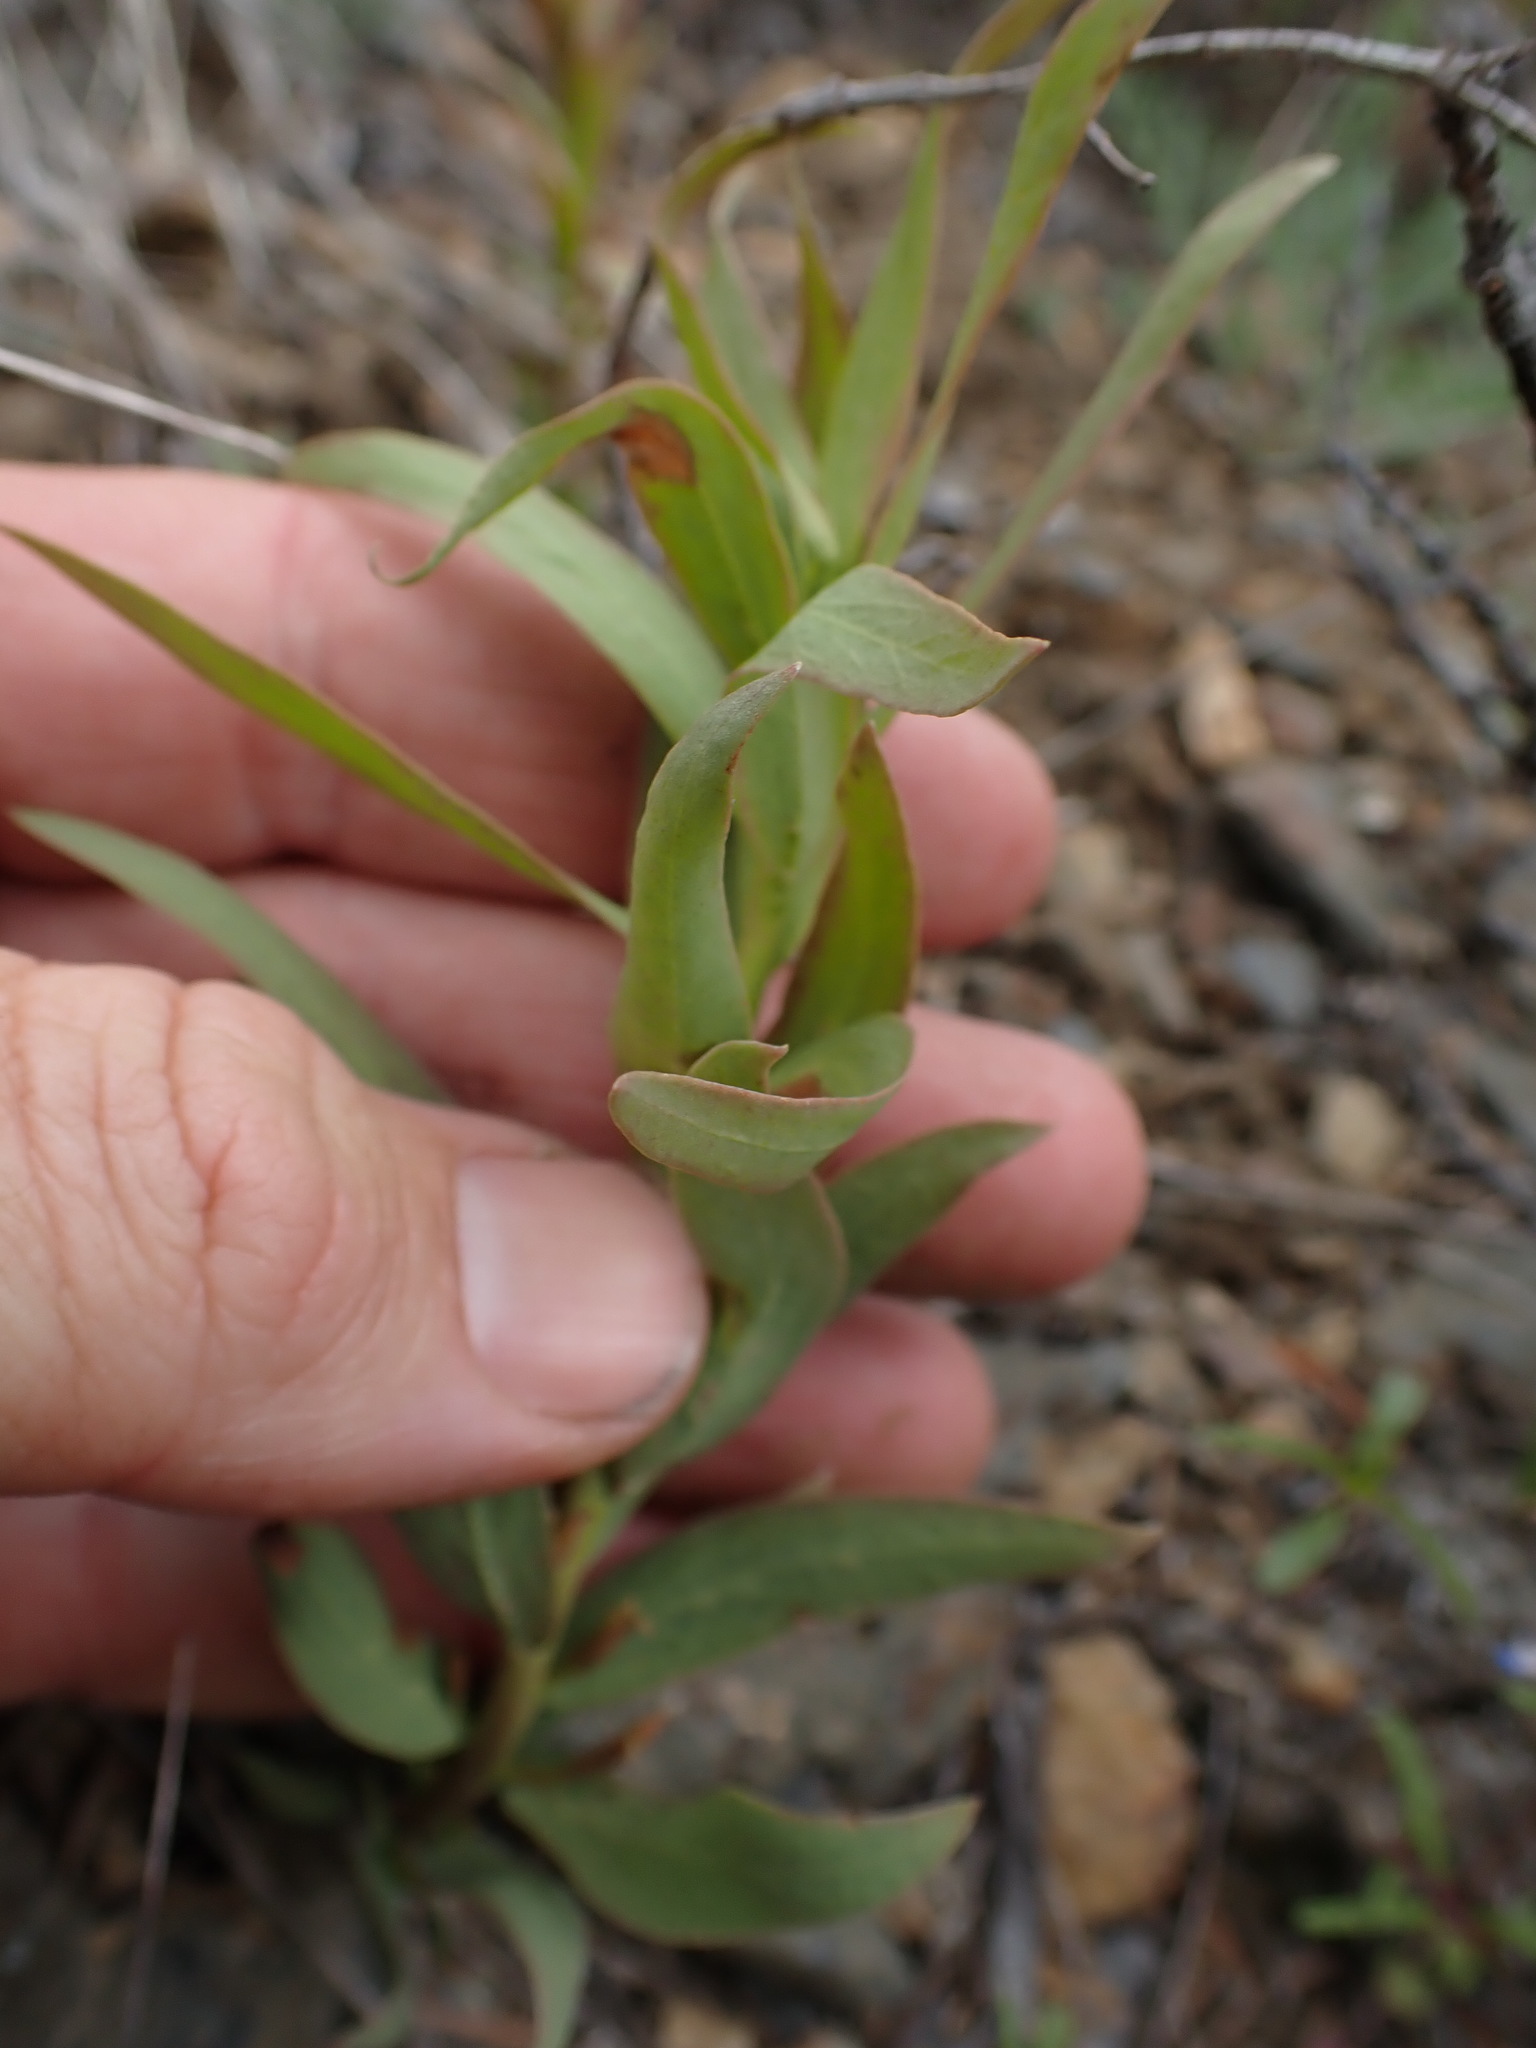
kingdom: Plantae
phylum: Tracheophyta
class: Magnoliopsida
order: Santalales
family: Comandraceae
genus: Comandra
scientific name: Comandra umbellata
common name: Bastard toadflax
